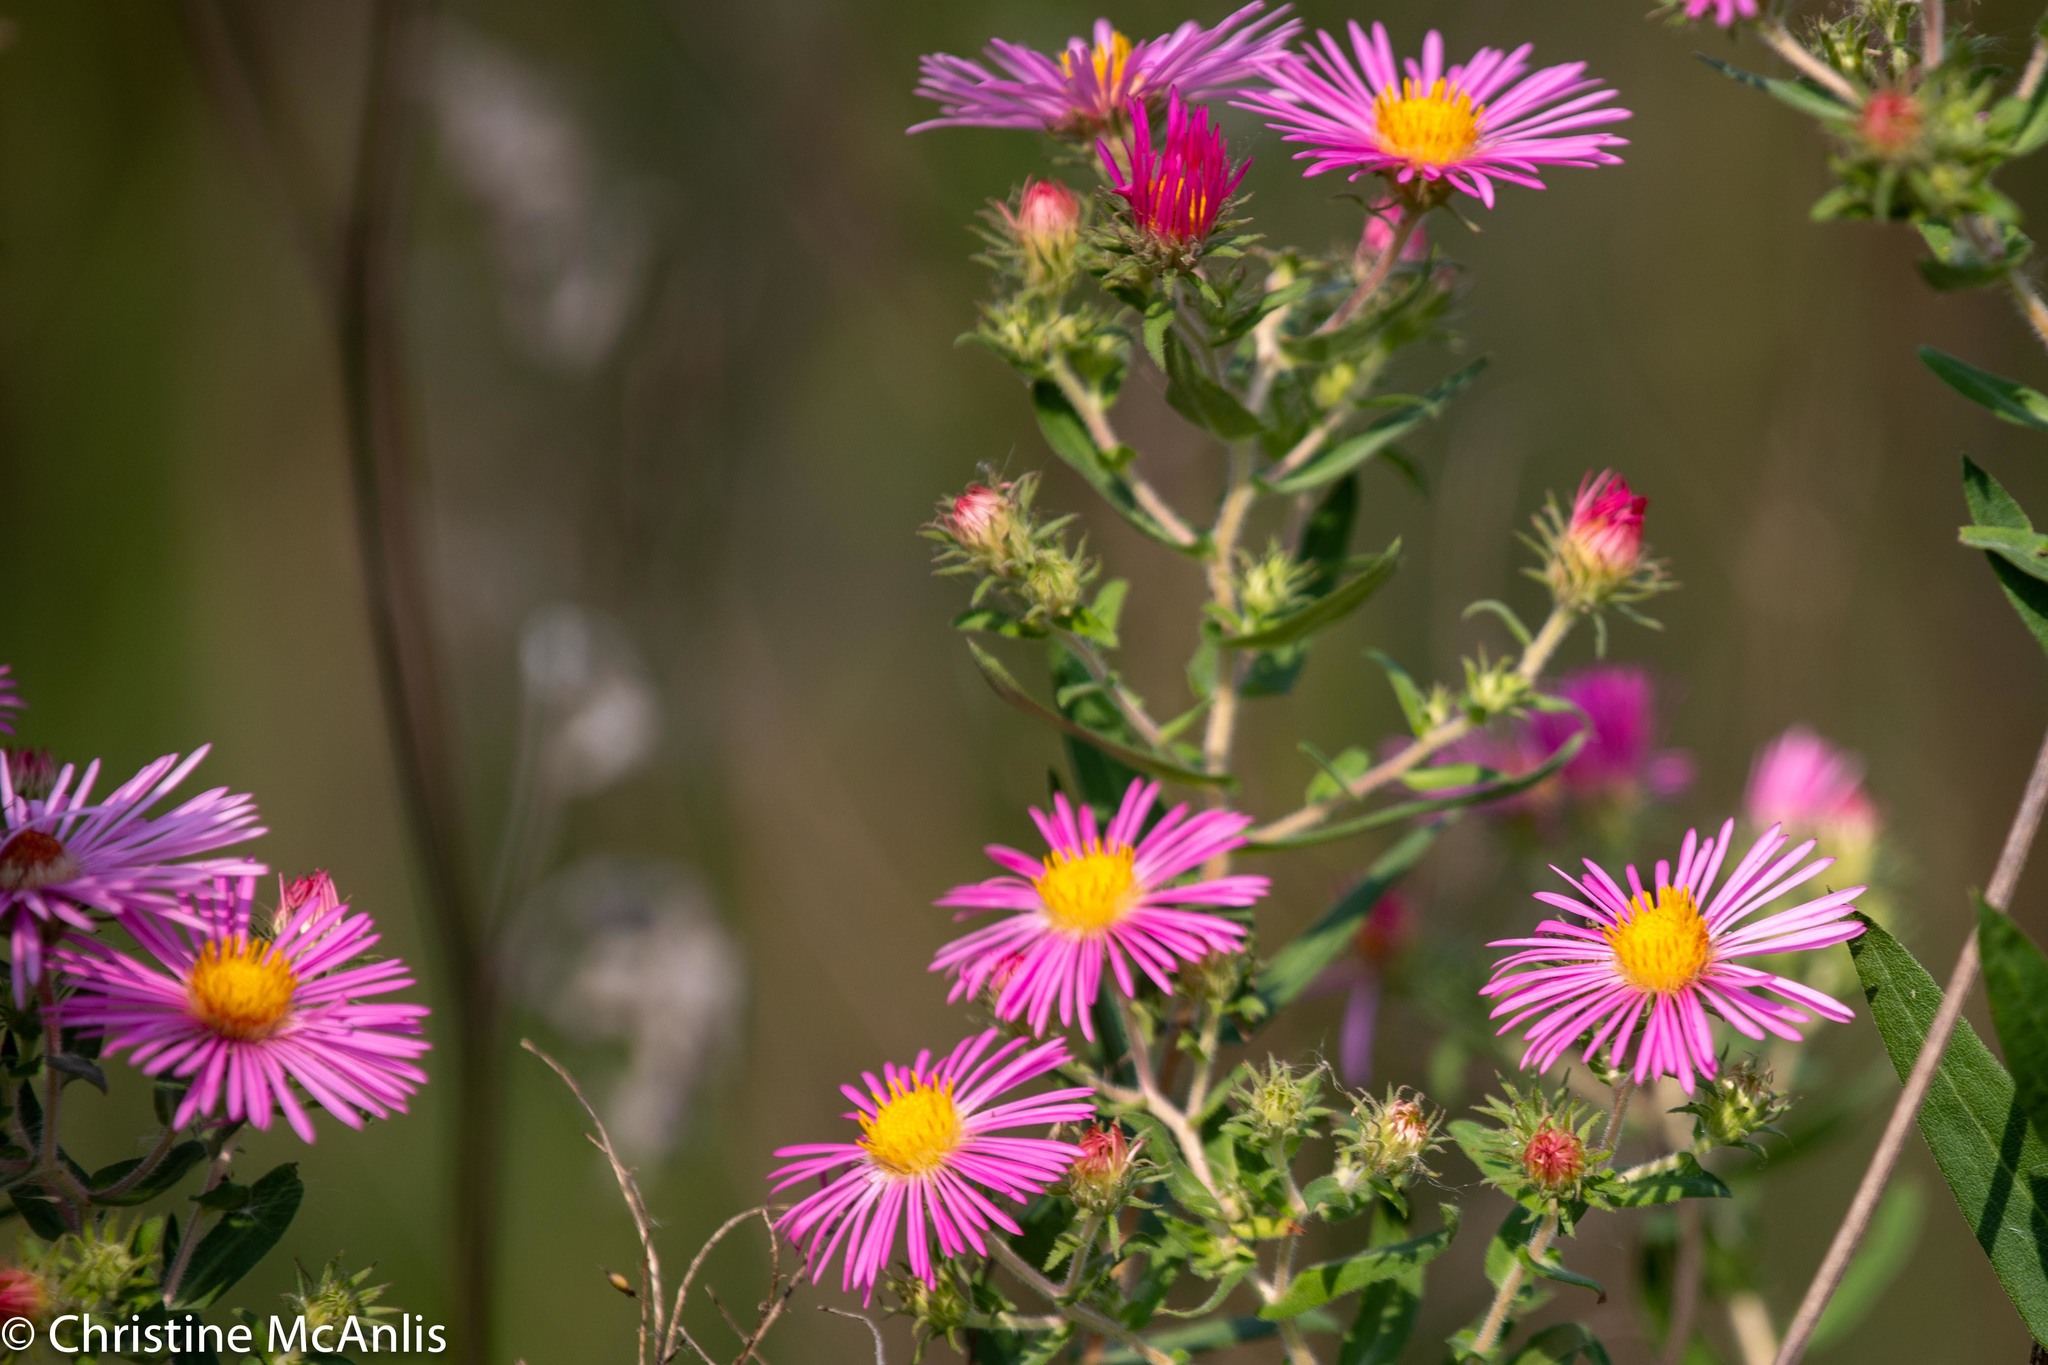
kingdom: Plantae
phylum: Tracheophyta
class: Magnoliopsida
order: Asterales
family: Asteraceae
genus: Symphyotrichum
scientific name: Symphyotrichum novae-angliae
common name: Michaelmas daisy
